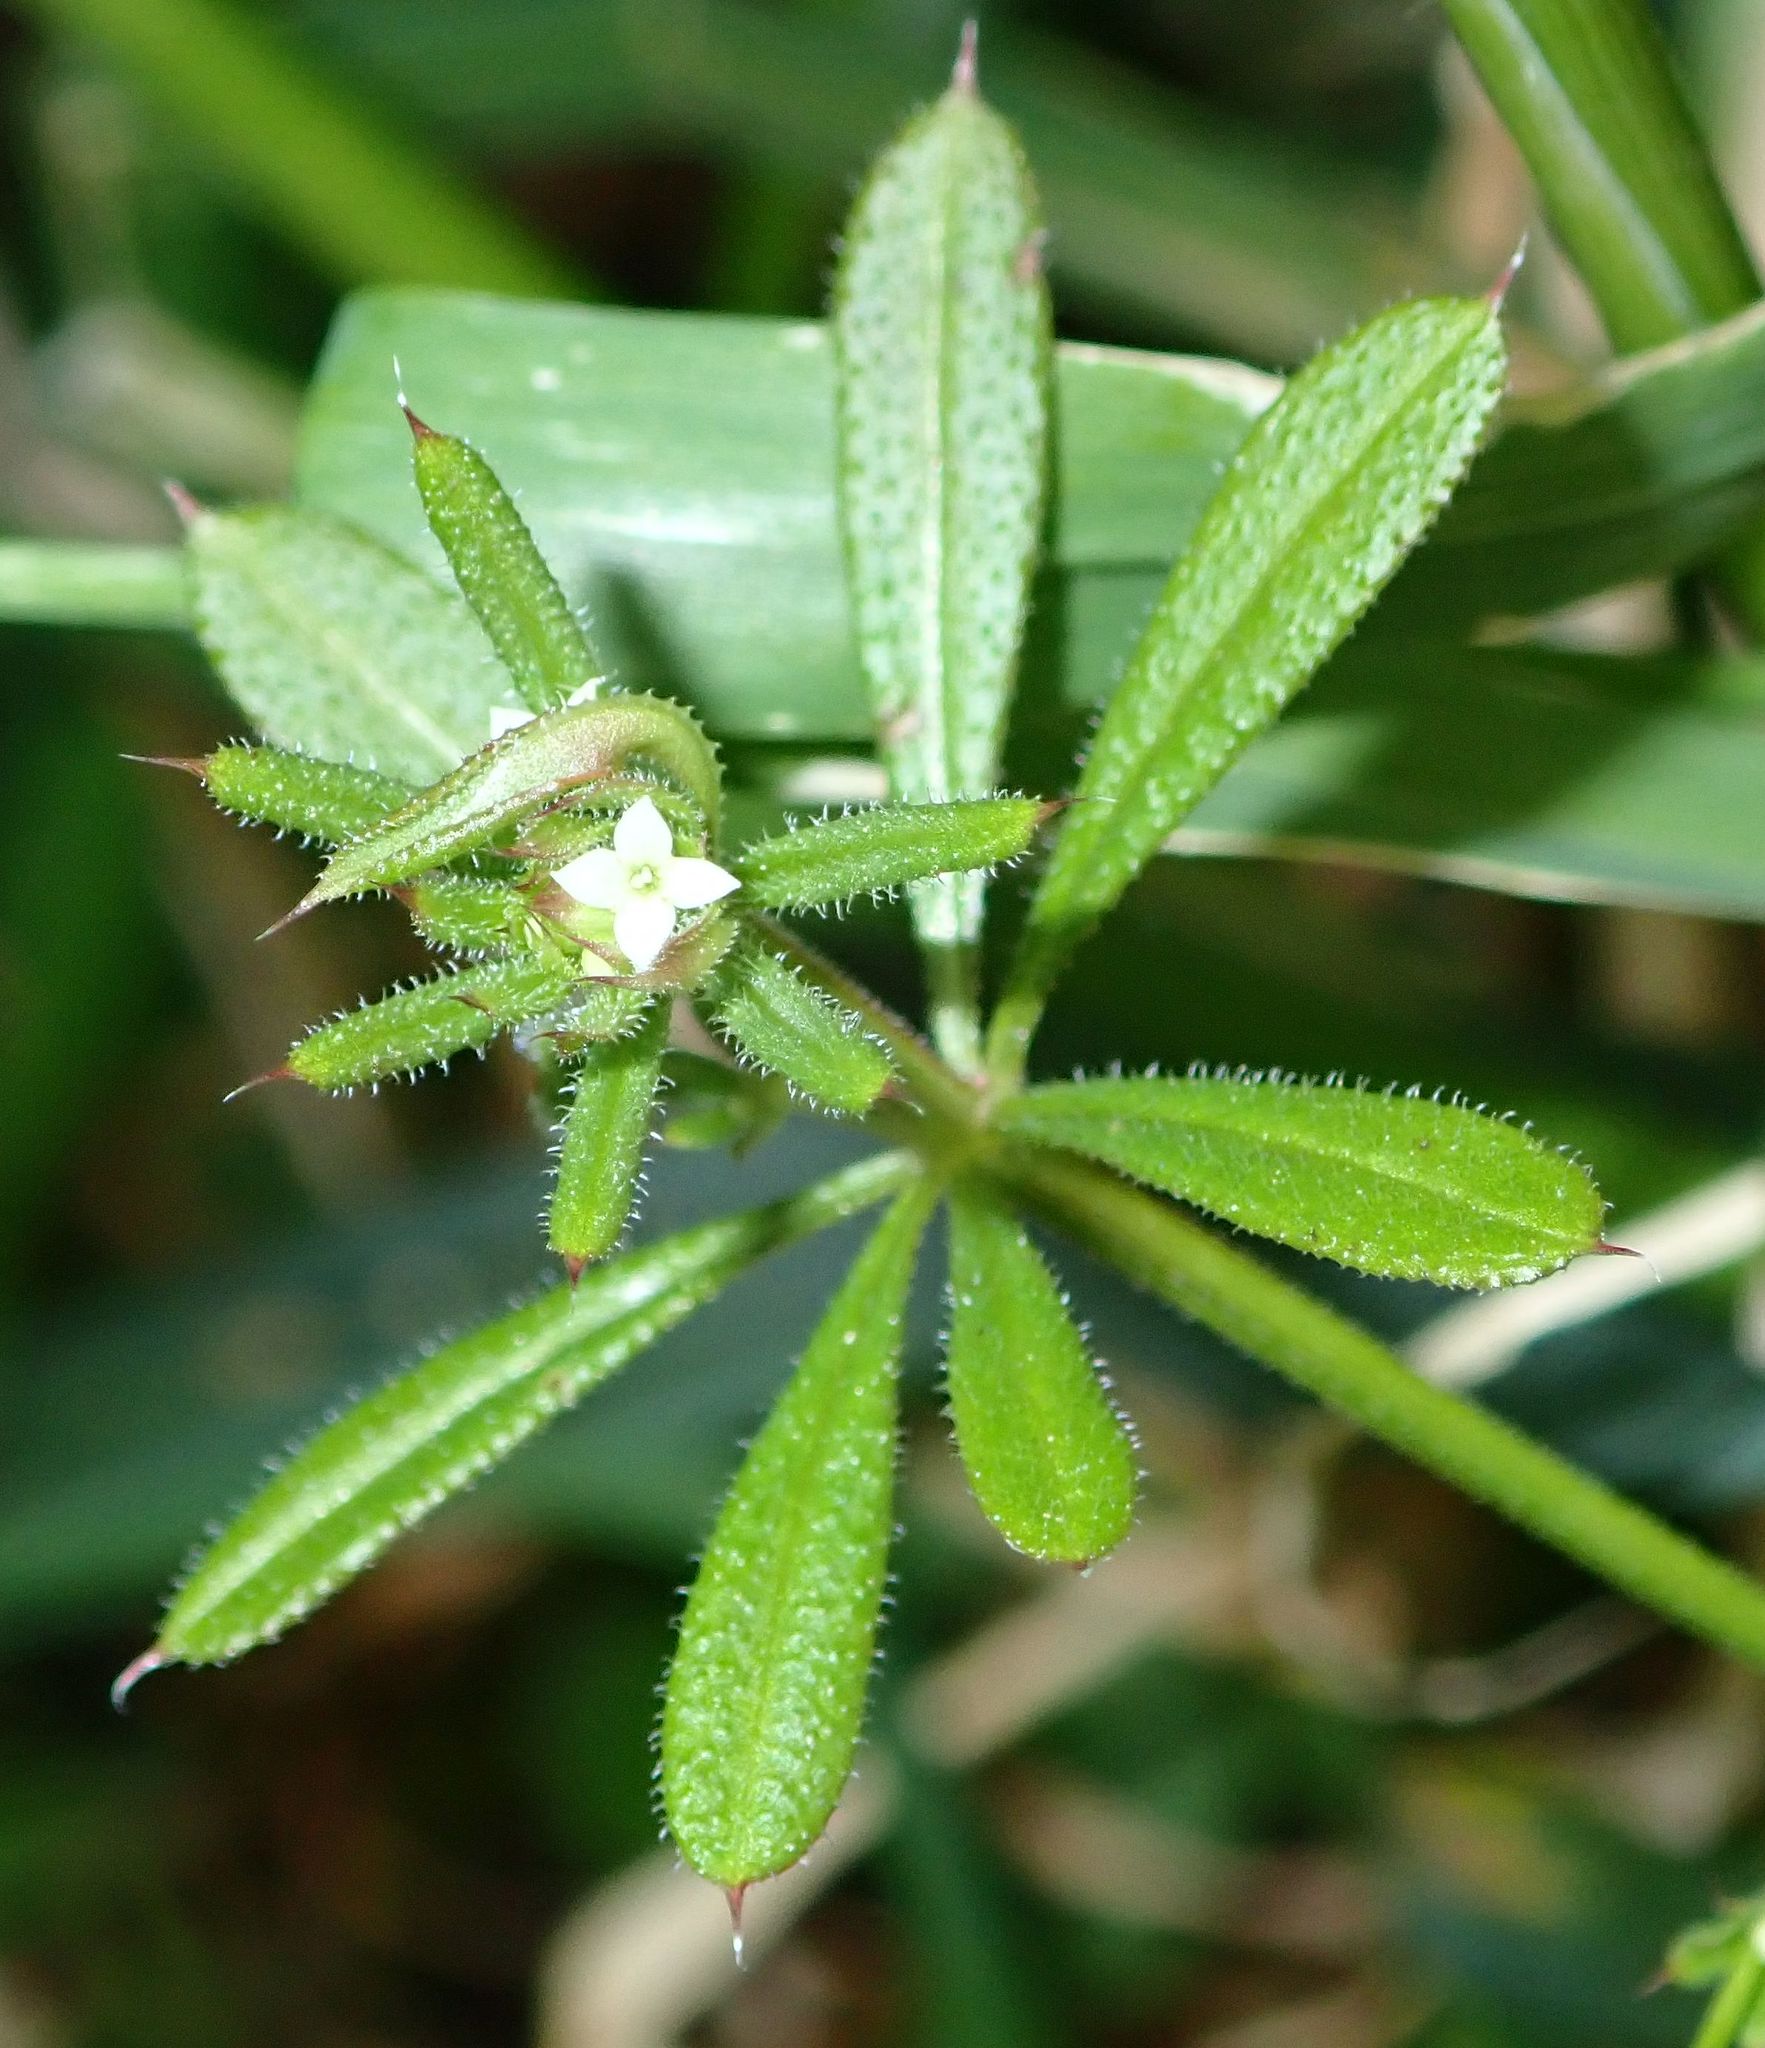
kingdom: Plantae
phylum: Tracheophyta
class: Magnoliopsida
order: Gentianales
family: Rubiaceae
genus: Galium
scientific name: Galium aparine
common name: Cleavers
